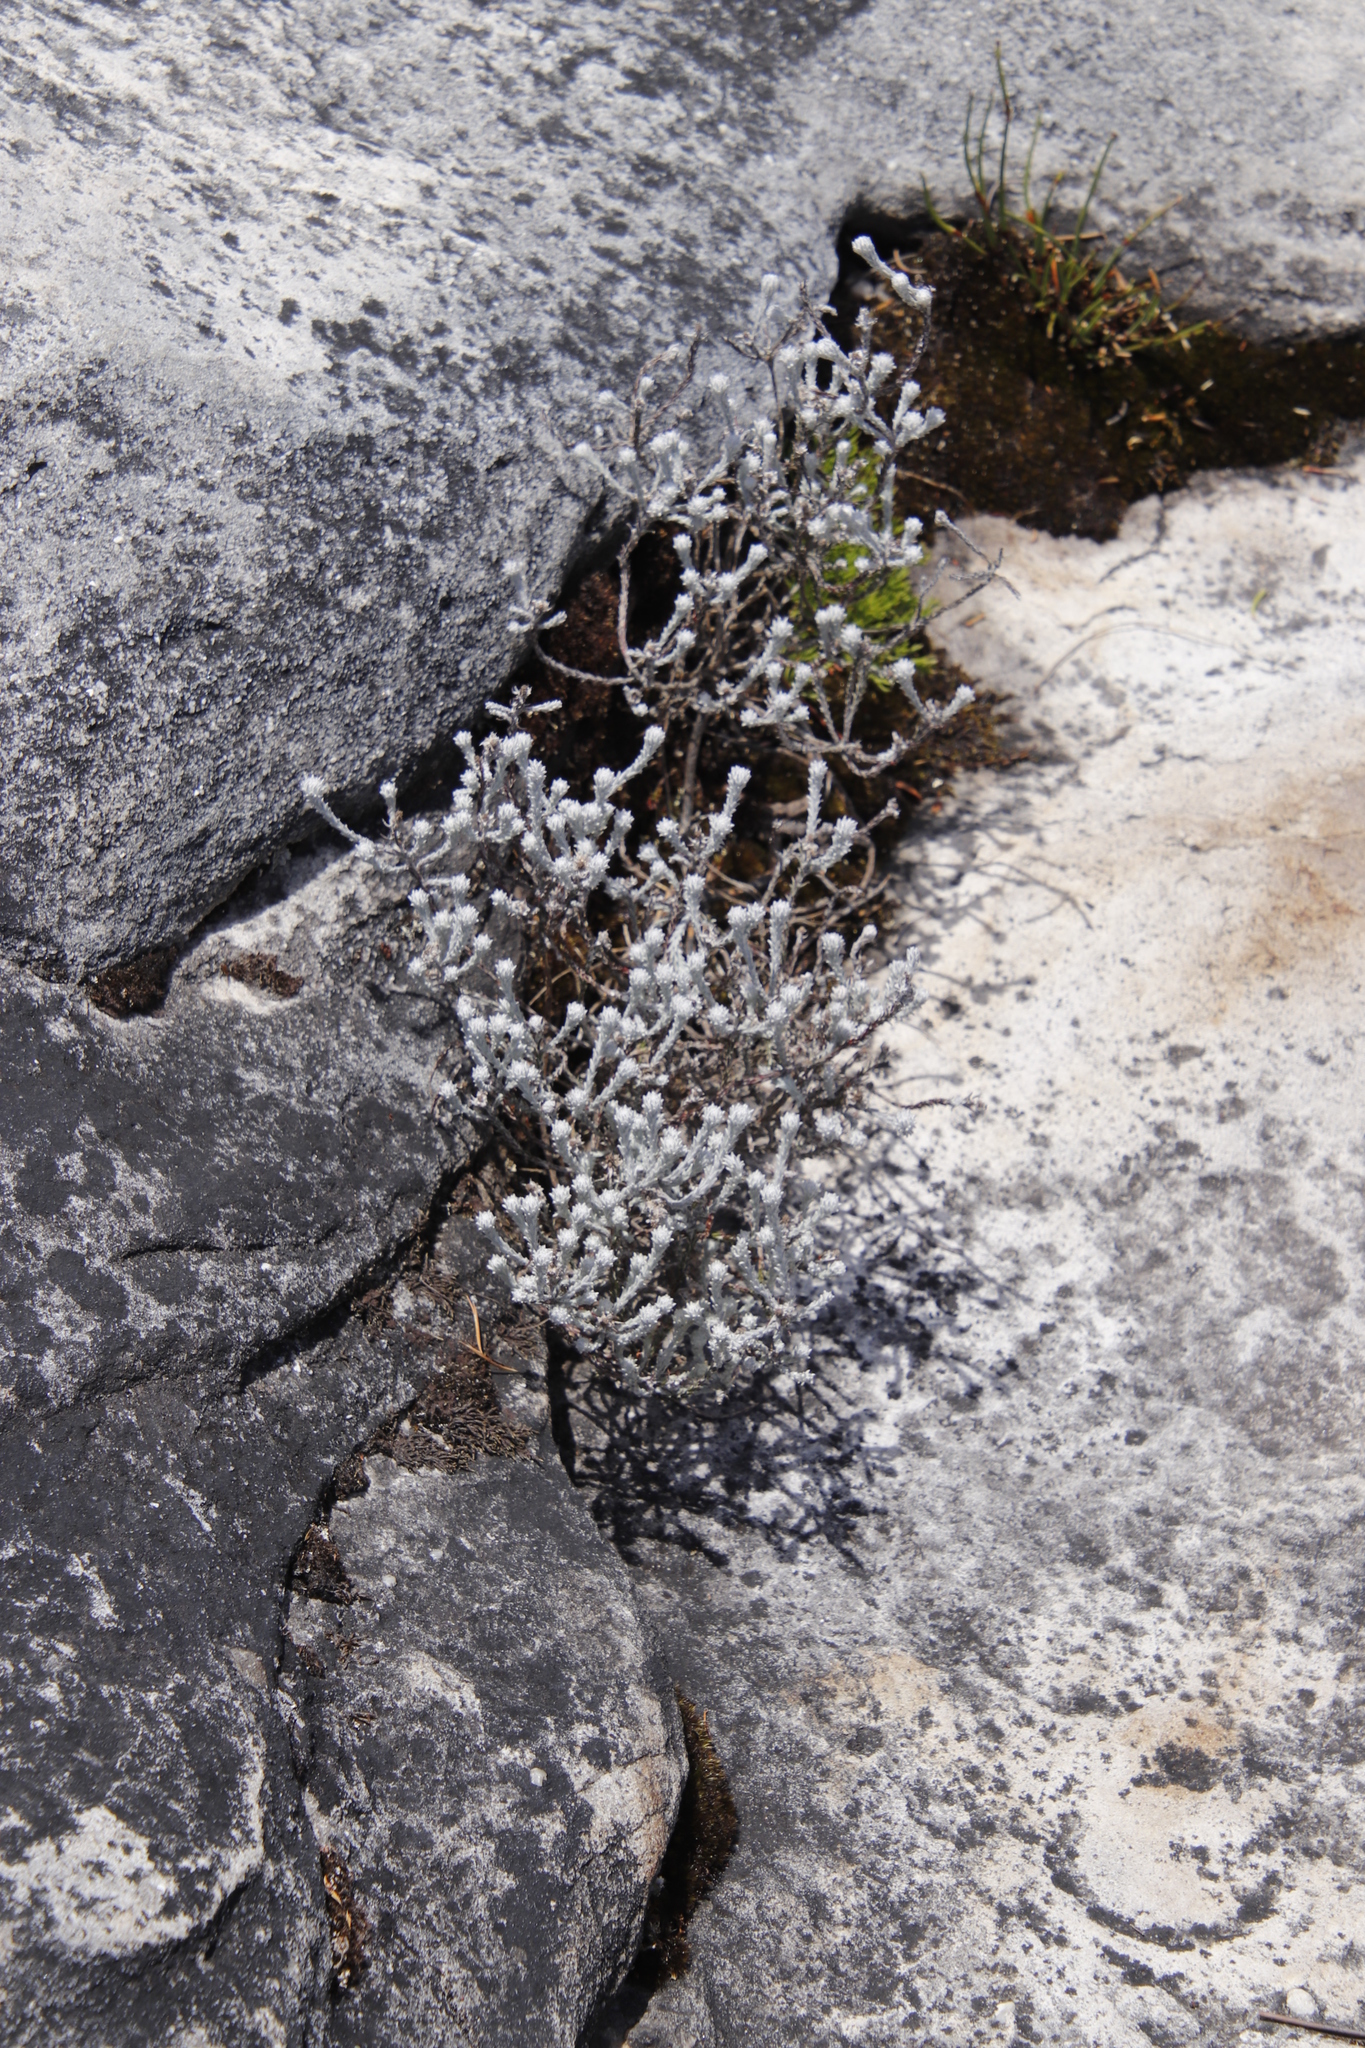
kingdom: Plantae
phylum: Tracheophyta
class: Magnoliopsida
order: Asterales
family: Asteraceae
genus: Seriphium
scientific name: Seriphium incanum
